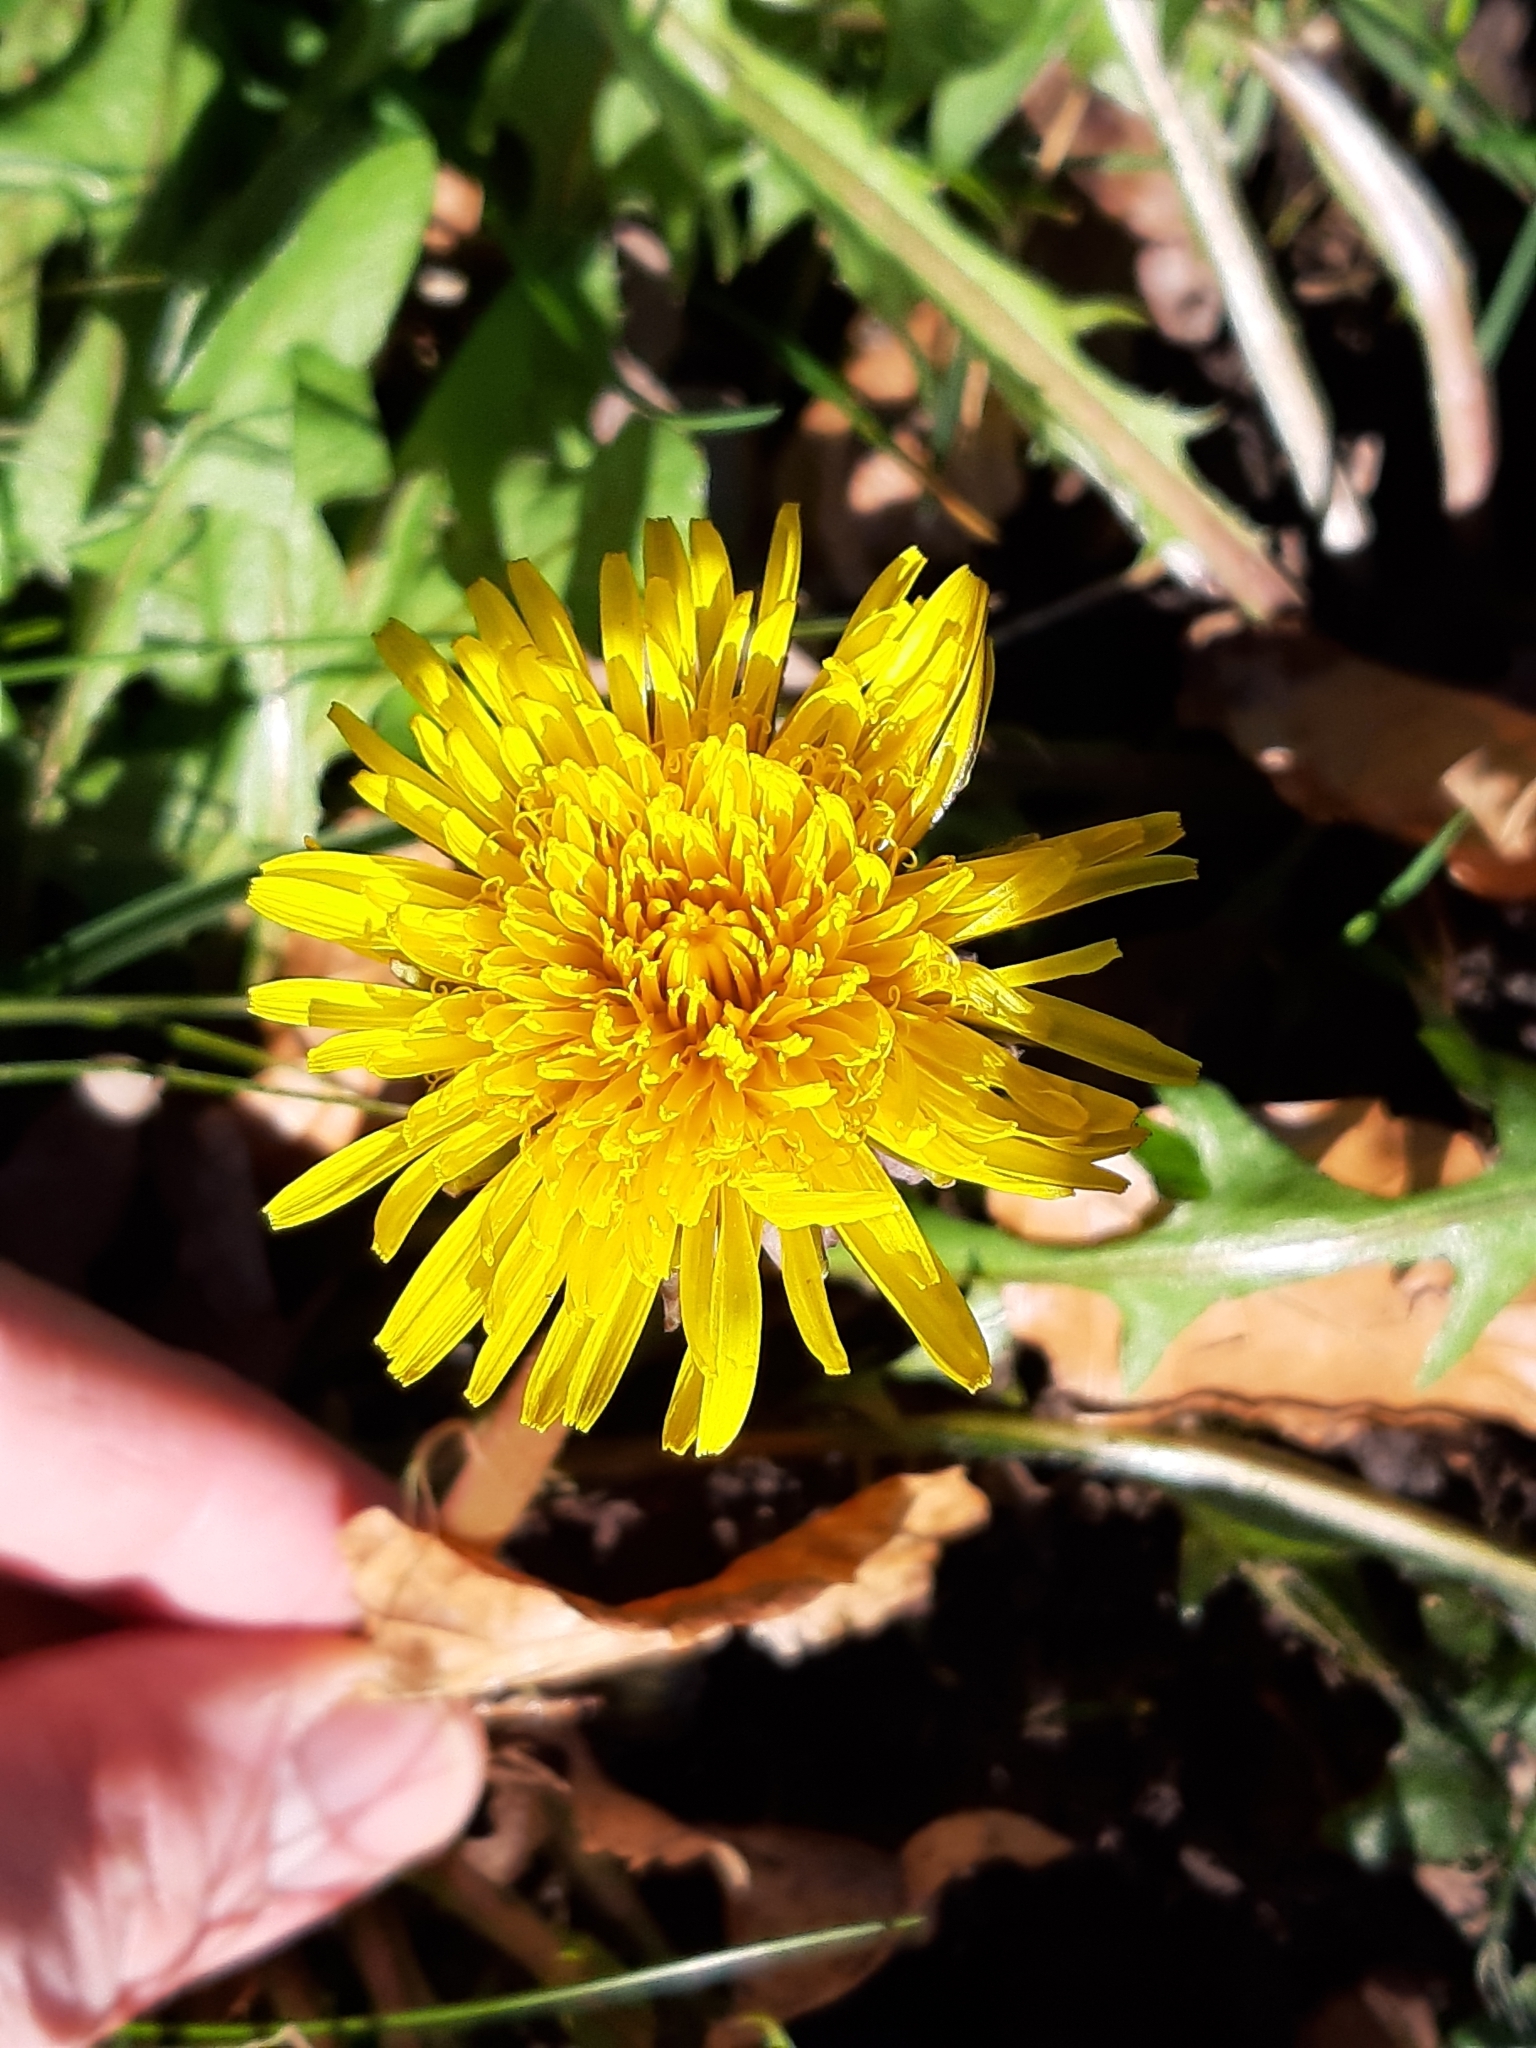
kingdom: Plantae
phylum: Tracheophyta
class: Magnoliopsida
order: Asterales
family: Asteraceae
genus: Taraxacum
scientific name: Taraxacum officinale
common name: Common dandelion
